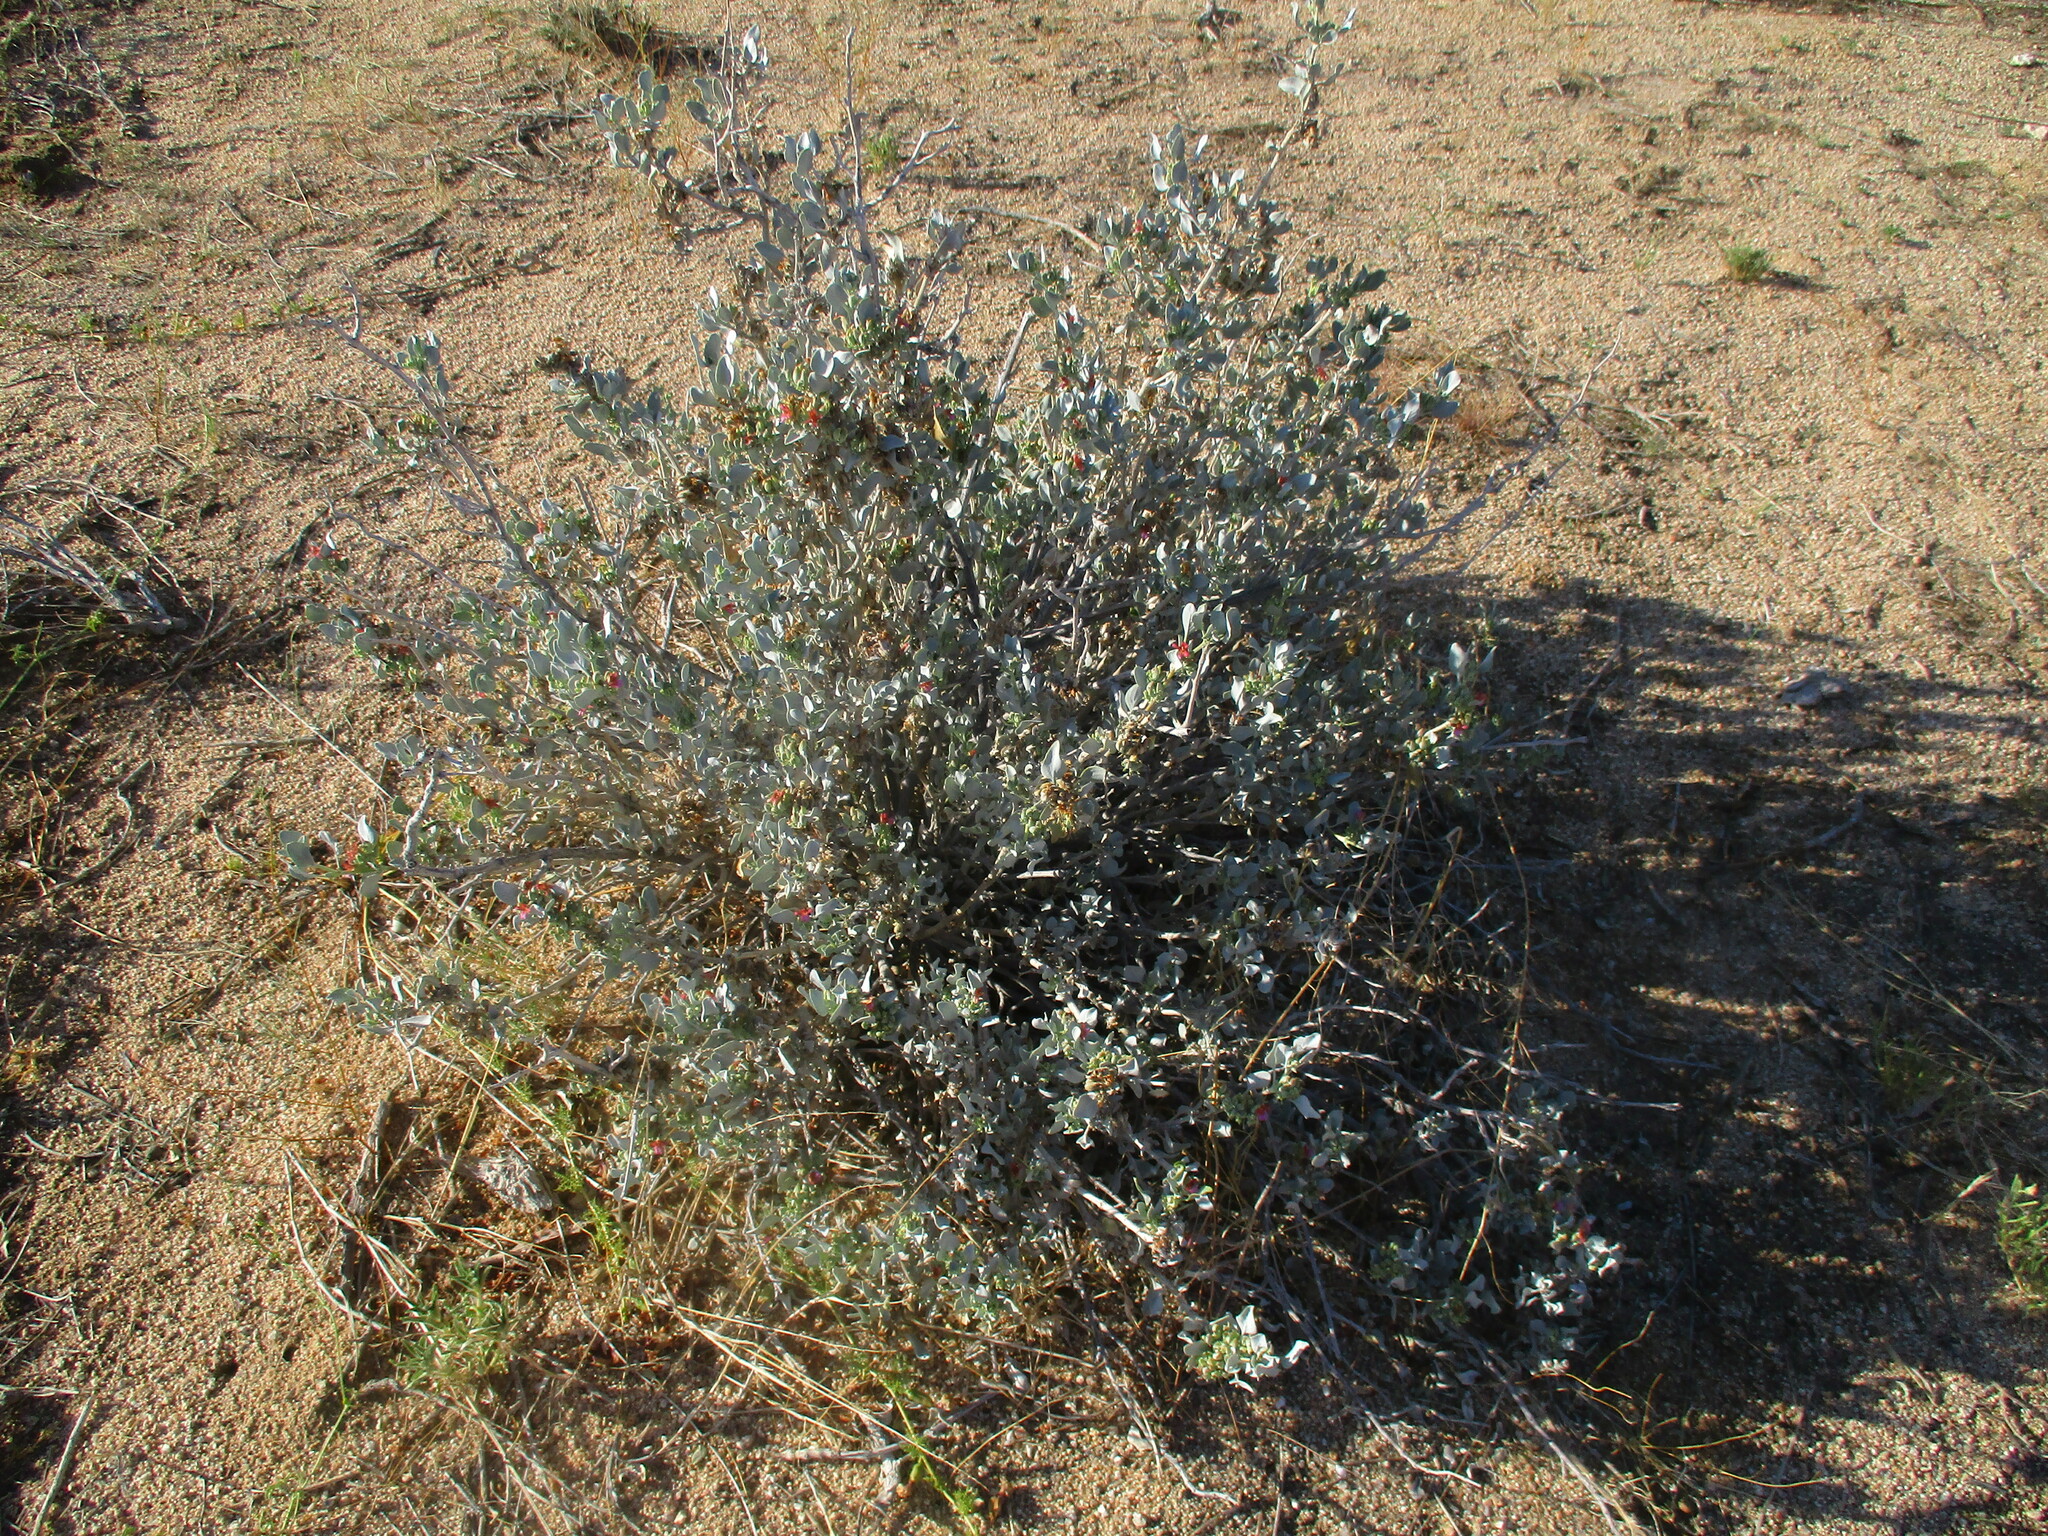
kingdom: Plantae
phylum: Tracheophyta
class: Magnoliopsida
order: Lamiales
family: Acanthaceae
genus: Petalidium
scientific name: Petalidium variabile
